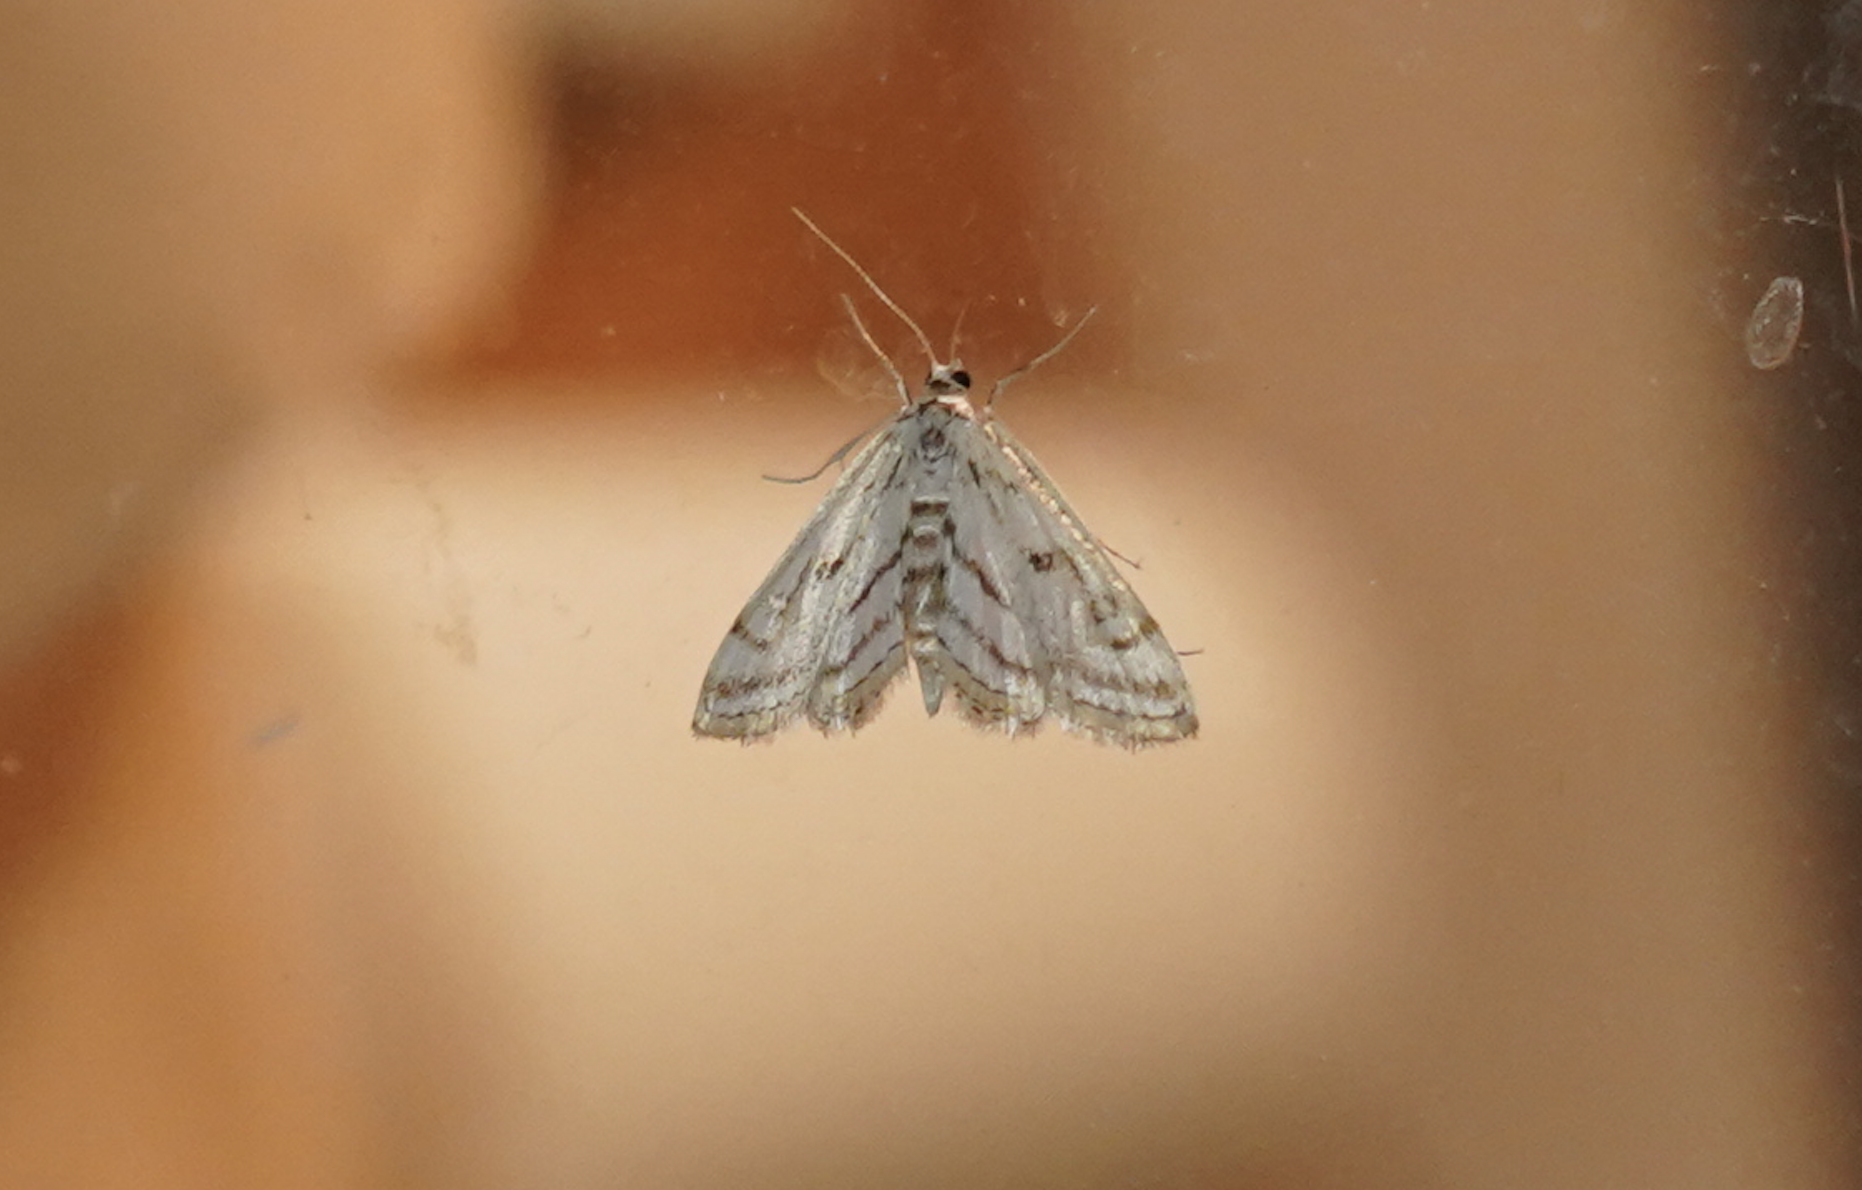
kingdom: Animalia
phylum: Arthropoda
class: Insecta
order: Lepidoptera
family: Crambidae
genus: Parapoynx
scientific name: Parapoynx badiusalis
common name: Chestnut-marked pondweed moth
